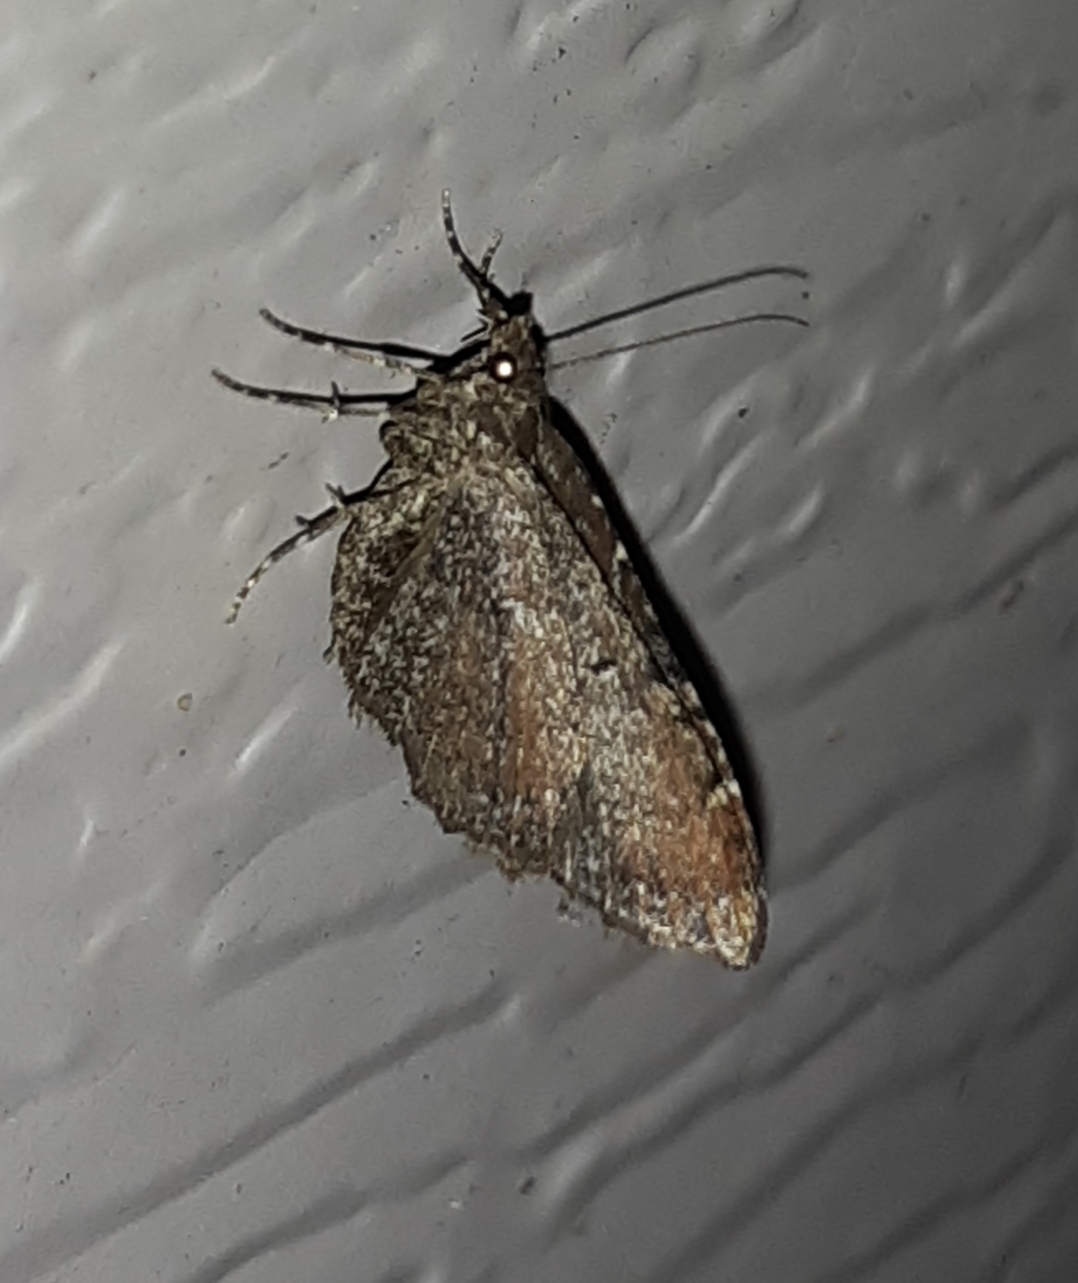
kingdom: Animalia
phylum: Arthropoda
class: Insecta
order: Lepidoptera
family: Geometridae
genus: Orthonama
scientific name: Orthonama obstipata
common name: The gem
